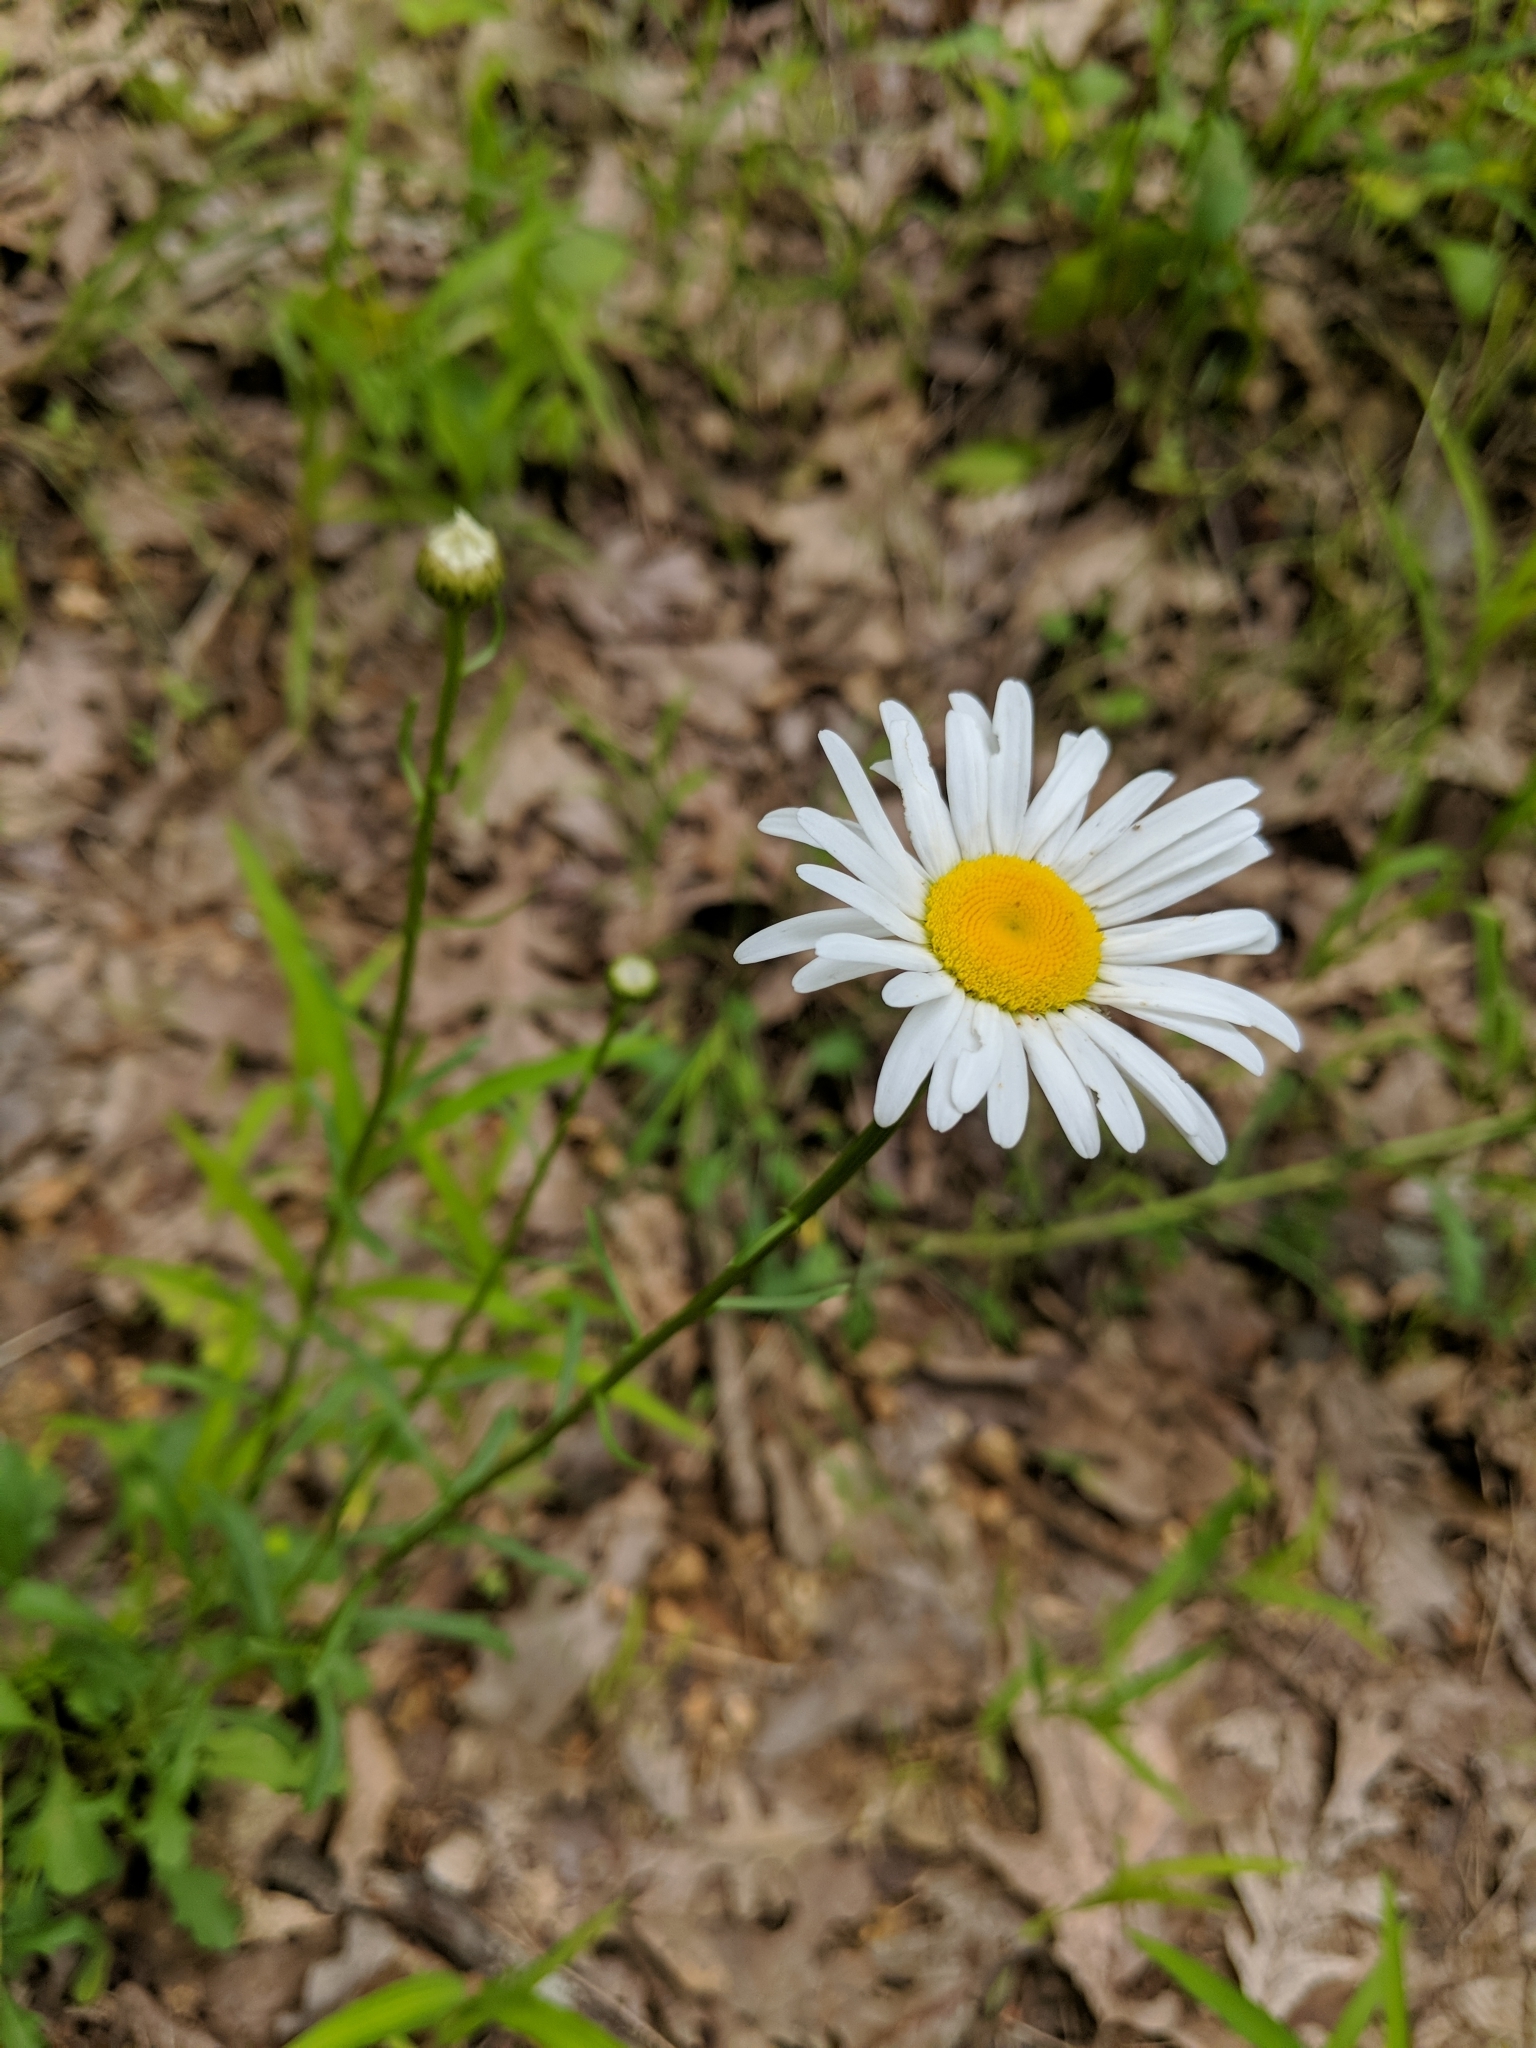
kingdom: Plantae
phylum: Tracheophyta
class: Magnoliopsida
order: Asterales
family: Asteraceae
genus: Leucanthemum
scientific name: Leucanthemum vulgare
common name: Oxeye daisy
